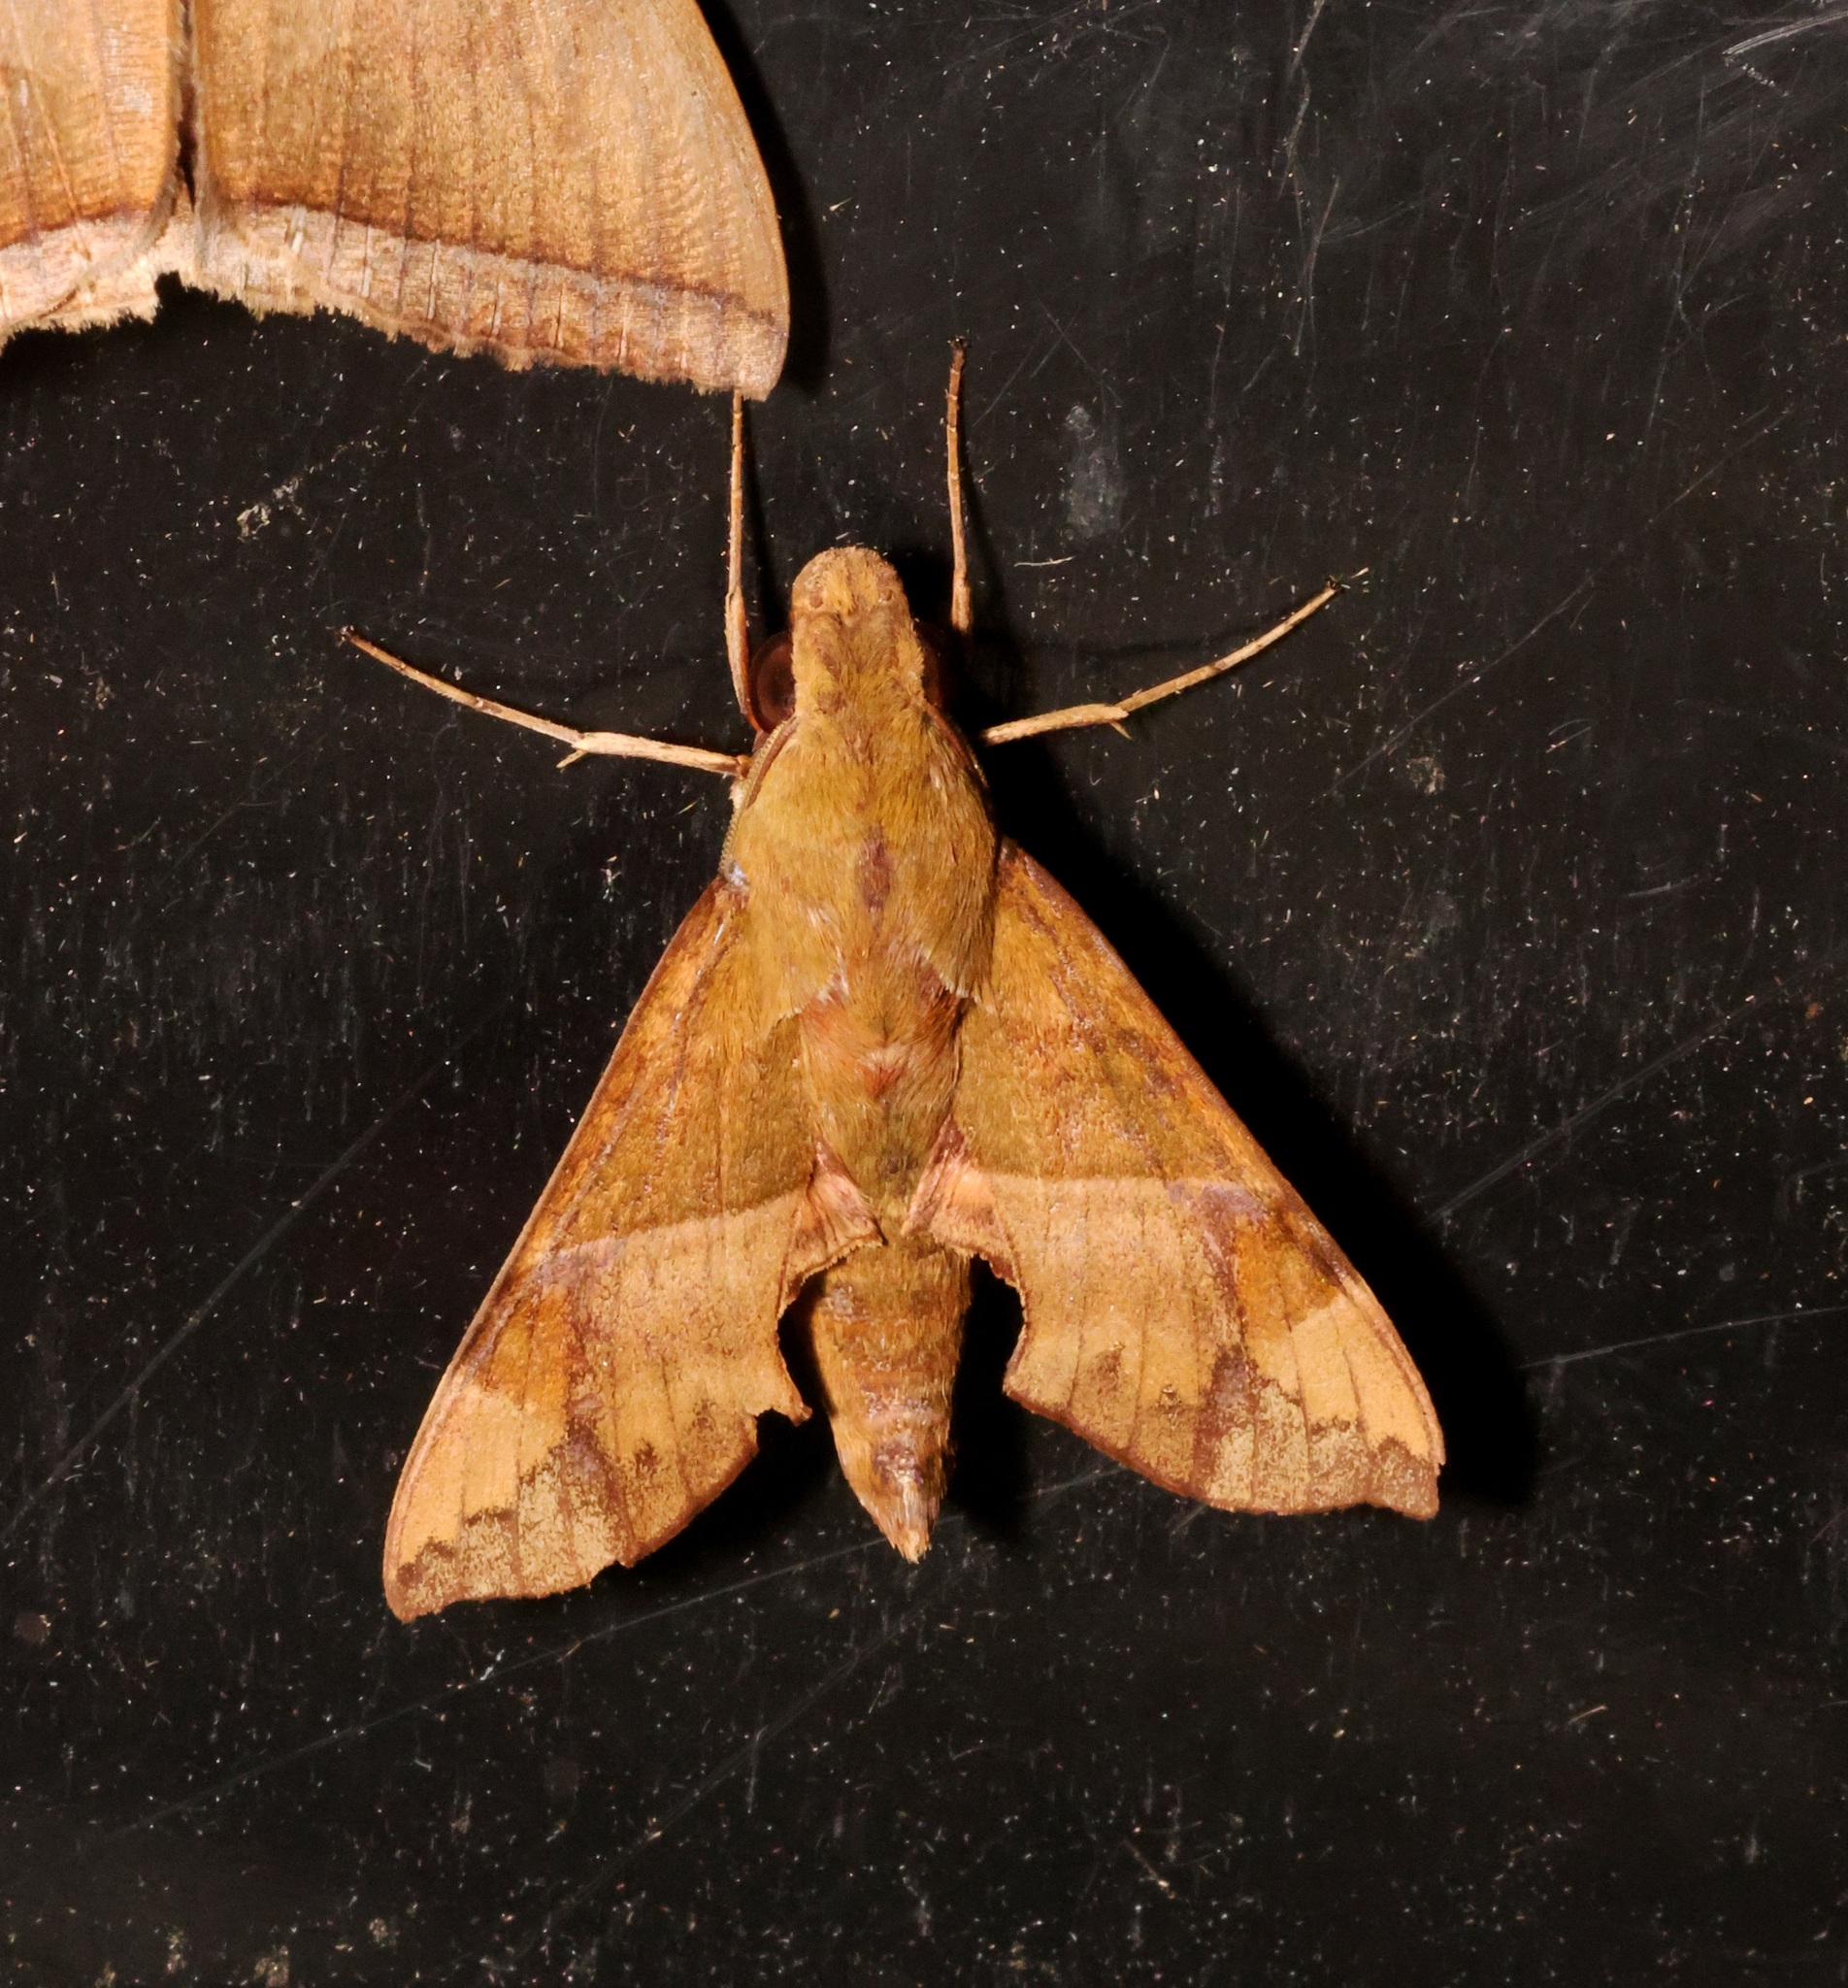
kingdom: Animalia
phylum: Arthropoda
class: Insecta
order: Lepidoptera
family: Sphingidae
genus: Angonyx
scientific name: Angonyx testacea
